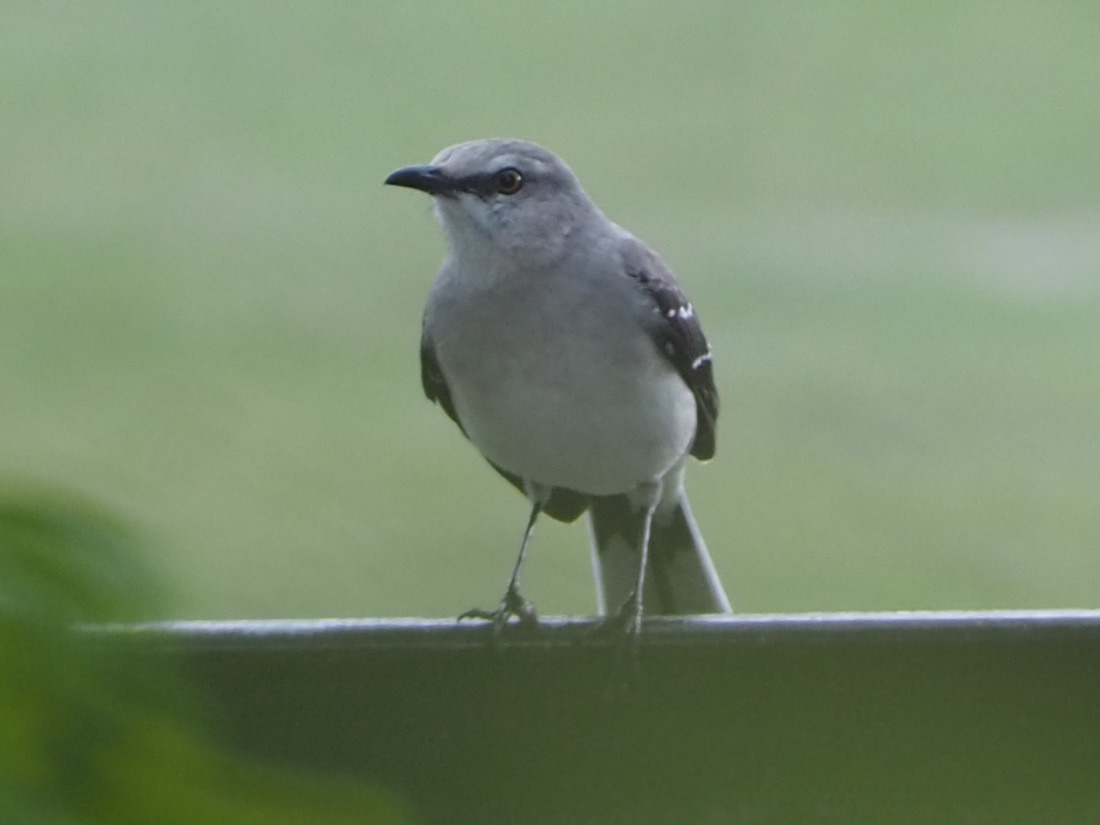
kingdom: Animalia
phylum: Chordata
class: Aves
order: Passeriformes
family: Mimidae
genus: Mimus
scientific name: Mimus gilvus
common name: Tropical mockingbird
